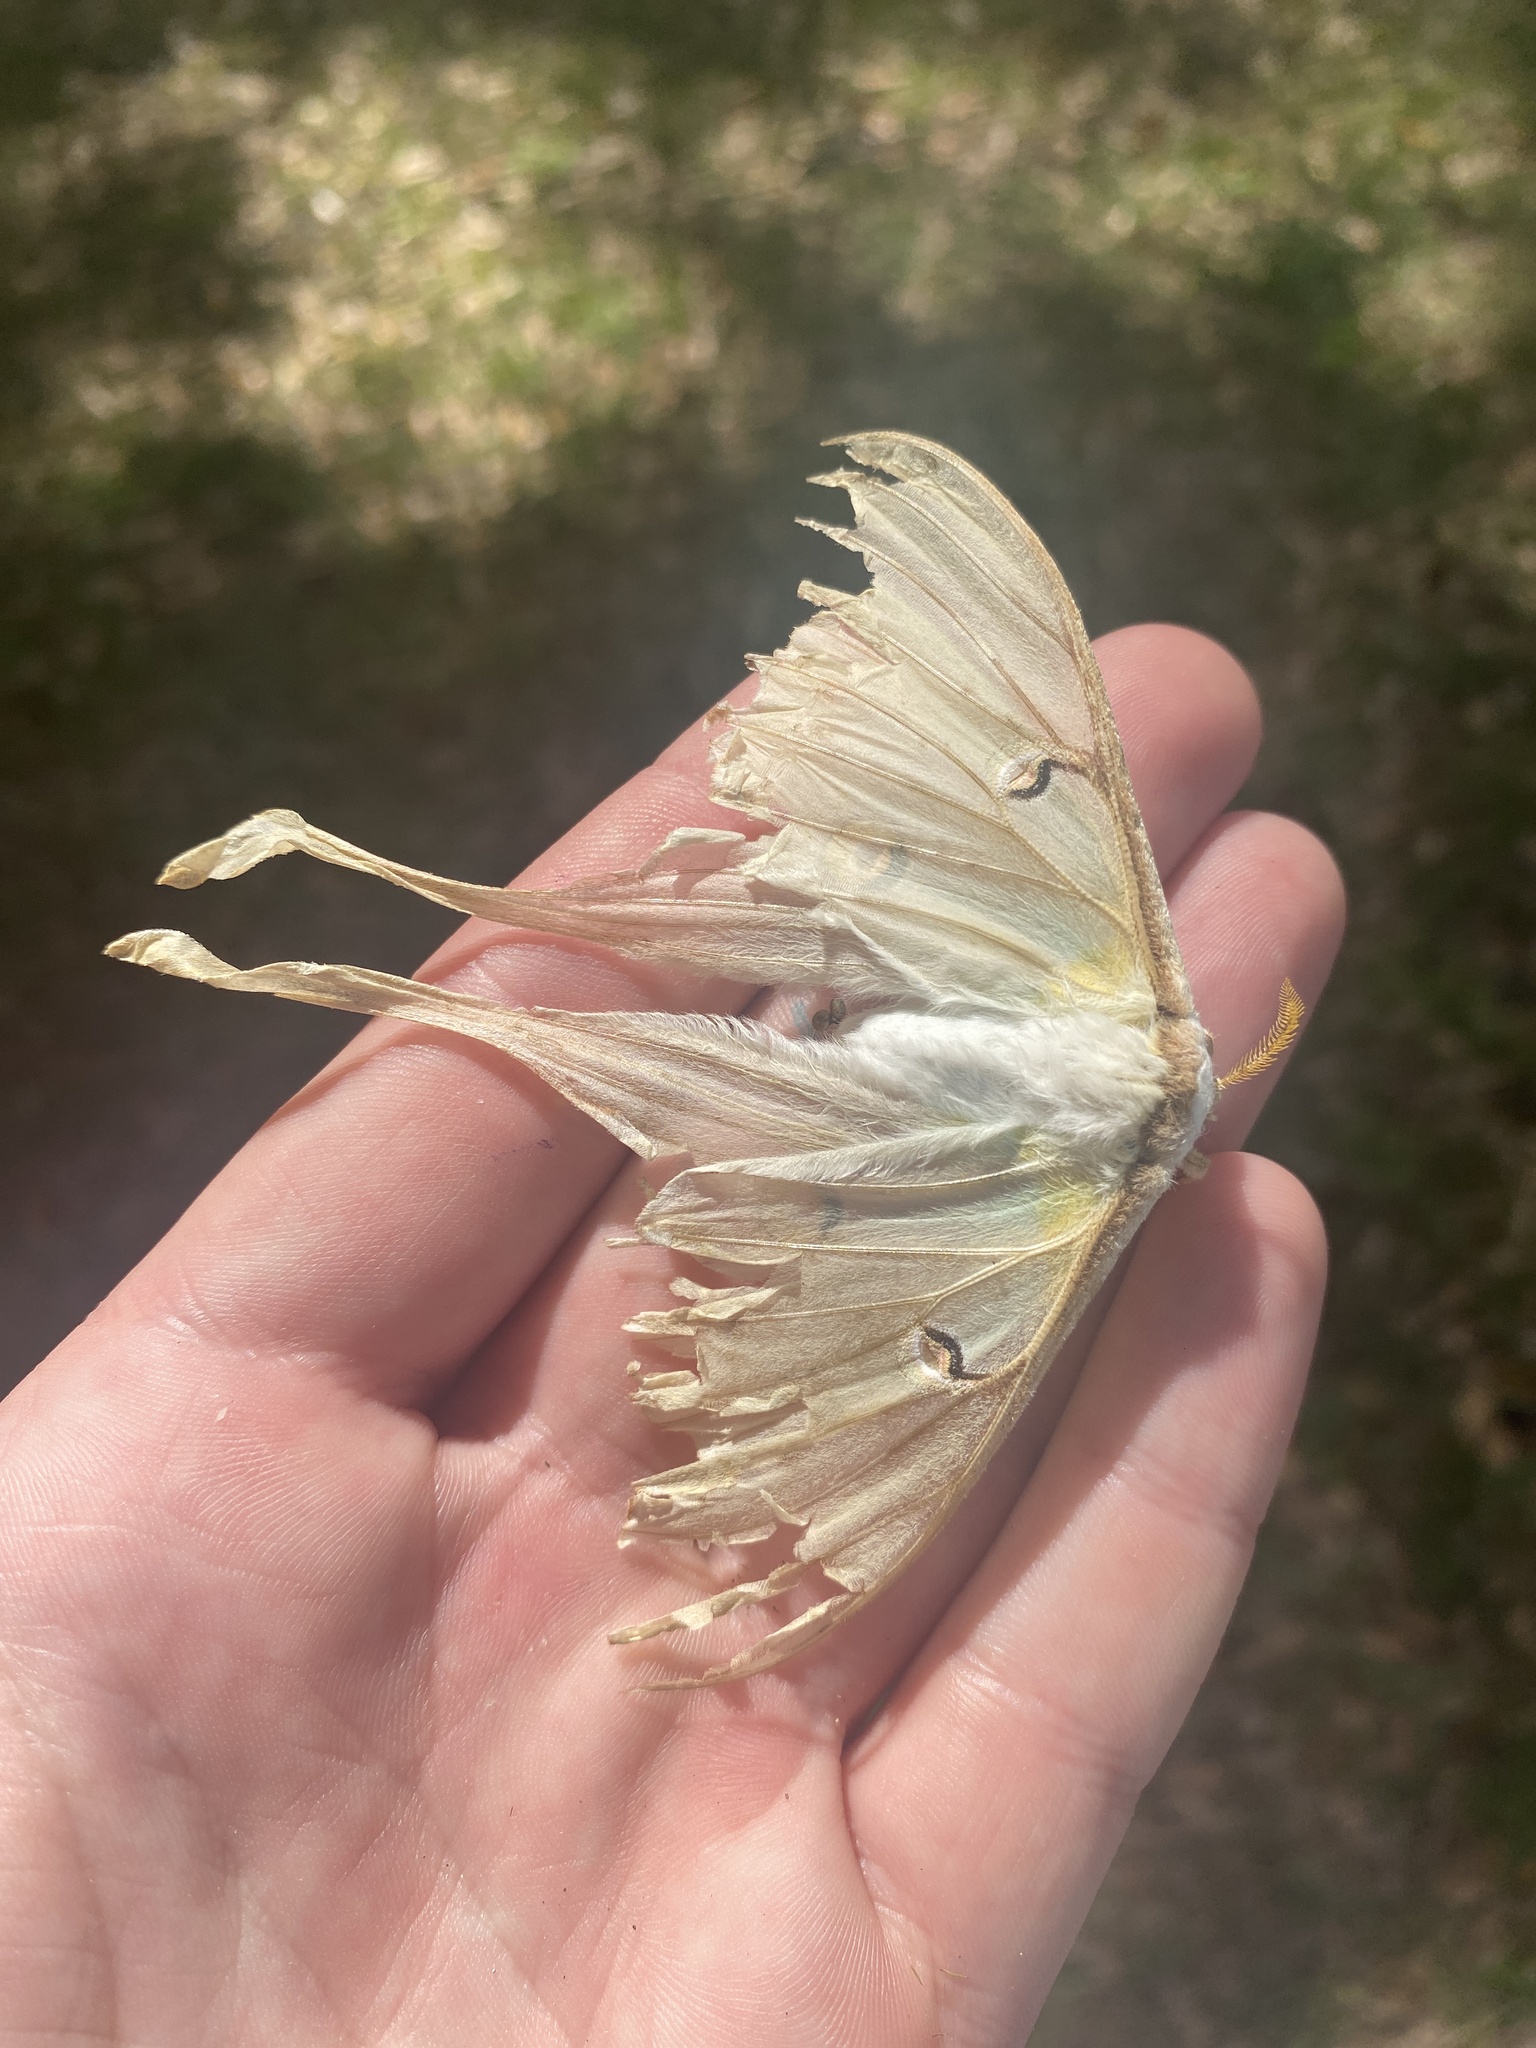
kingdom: Animalia
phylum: Arthropoda
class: Insecta
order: Lepidoptera
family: Saturniidae
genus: Actias
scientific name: Actias luna
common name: Luna moth
